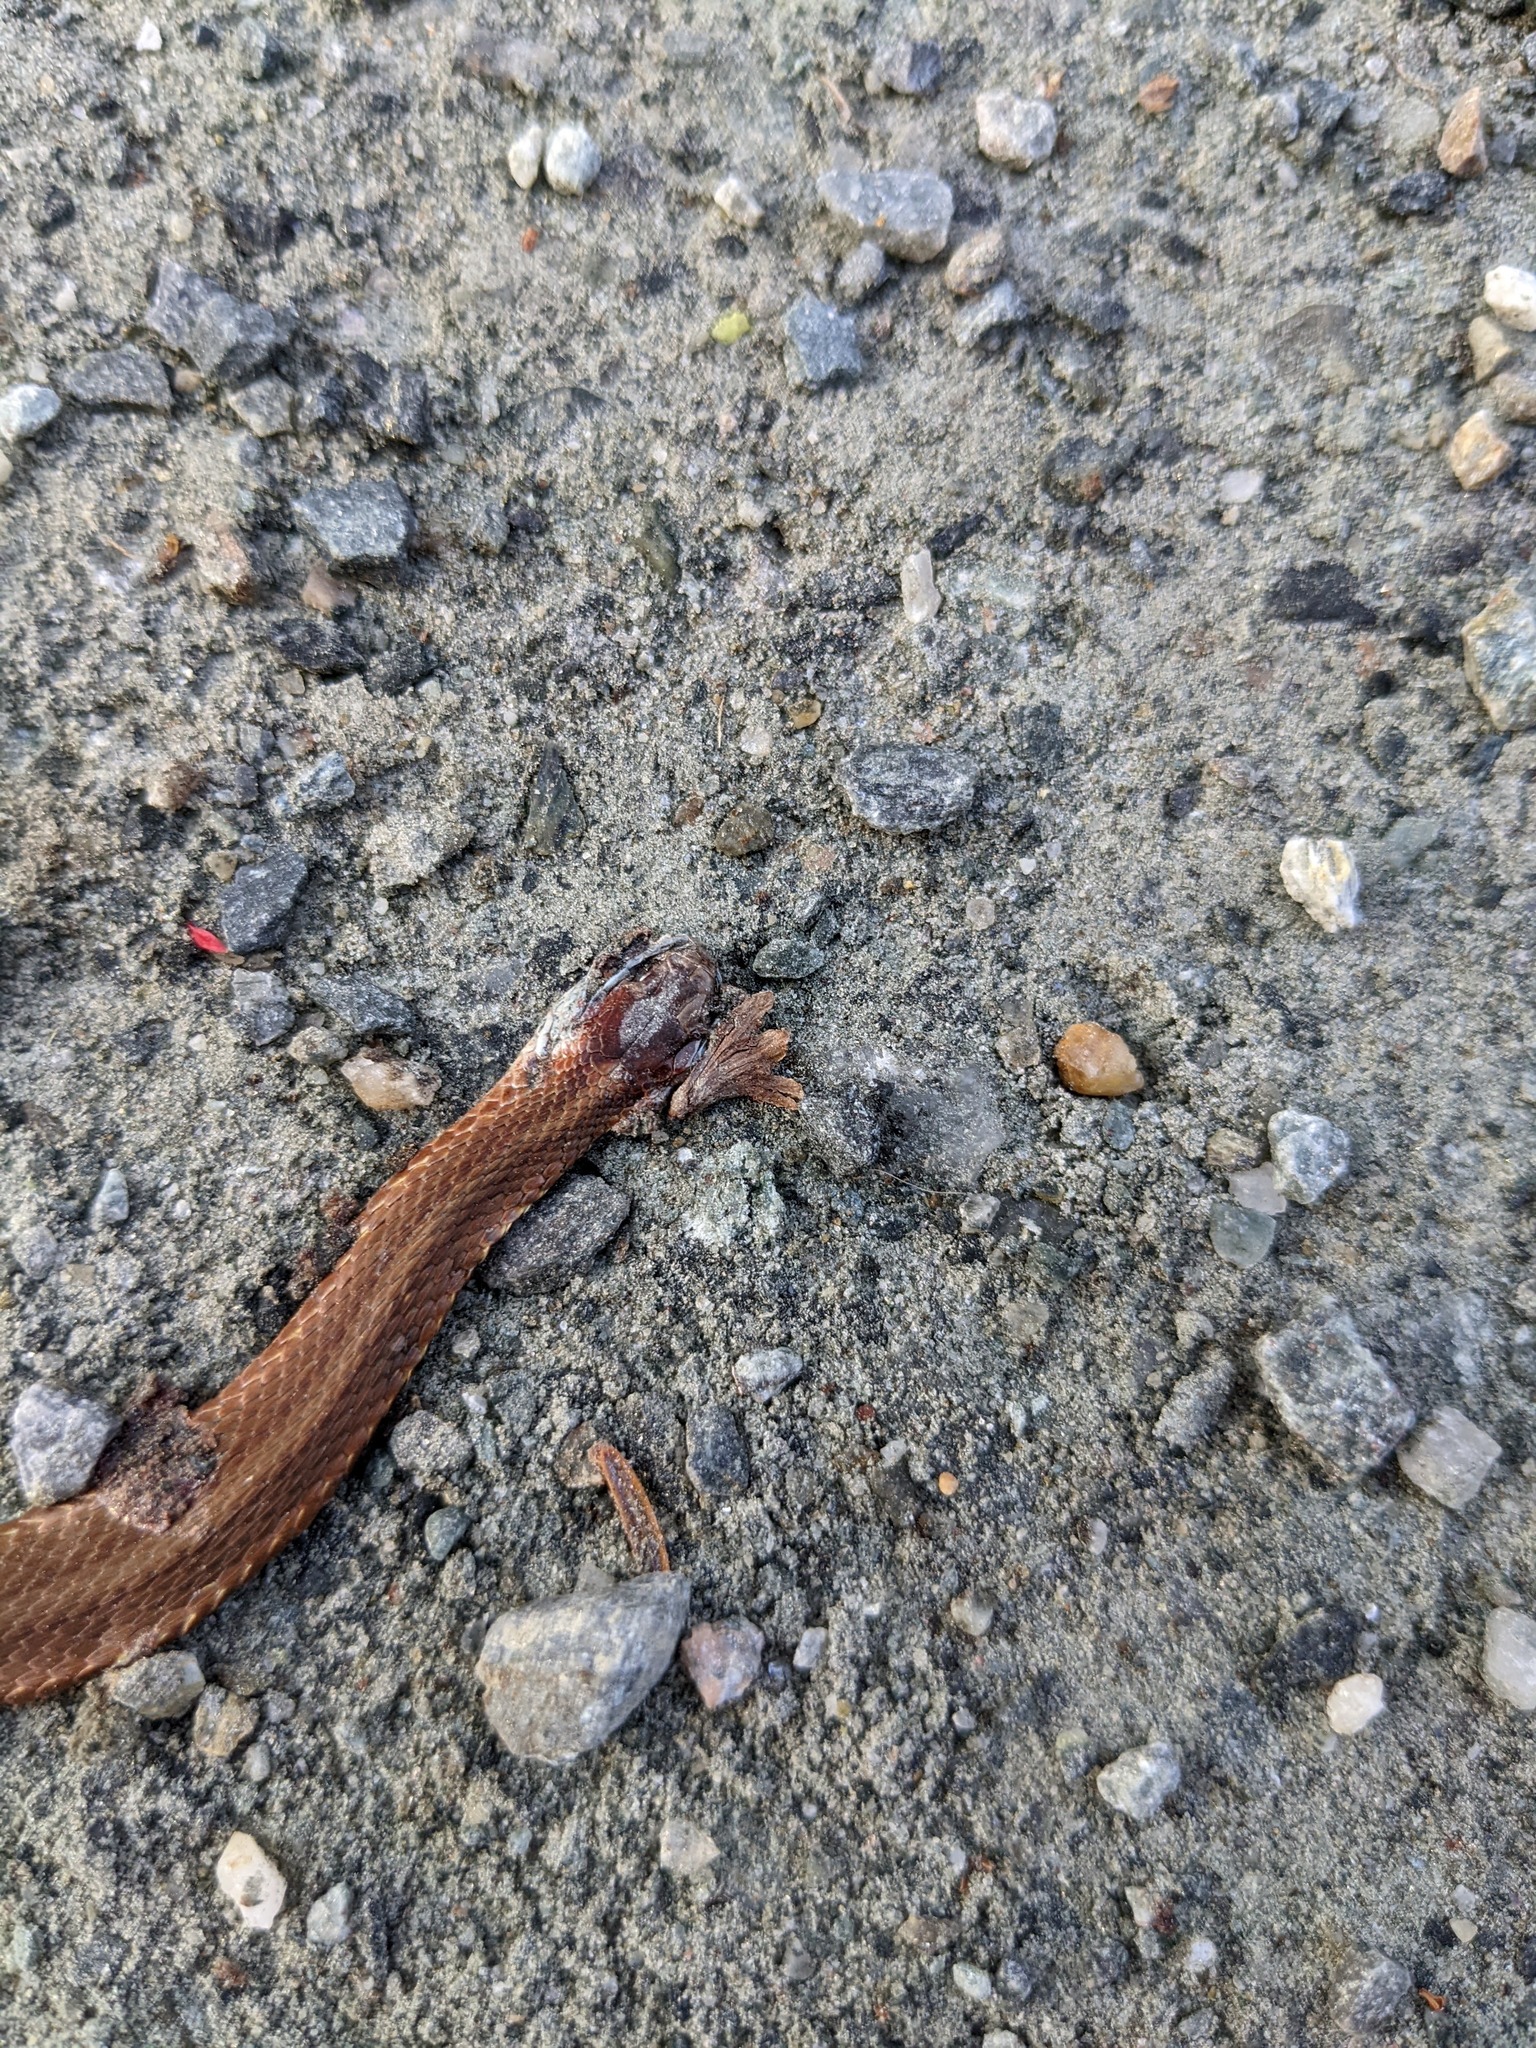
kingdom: Animalia
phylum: Chordata
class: Squamata
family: Colubridae
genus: Storeria
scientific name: Storeria occipitomaculata
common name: Redbelly snake
